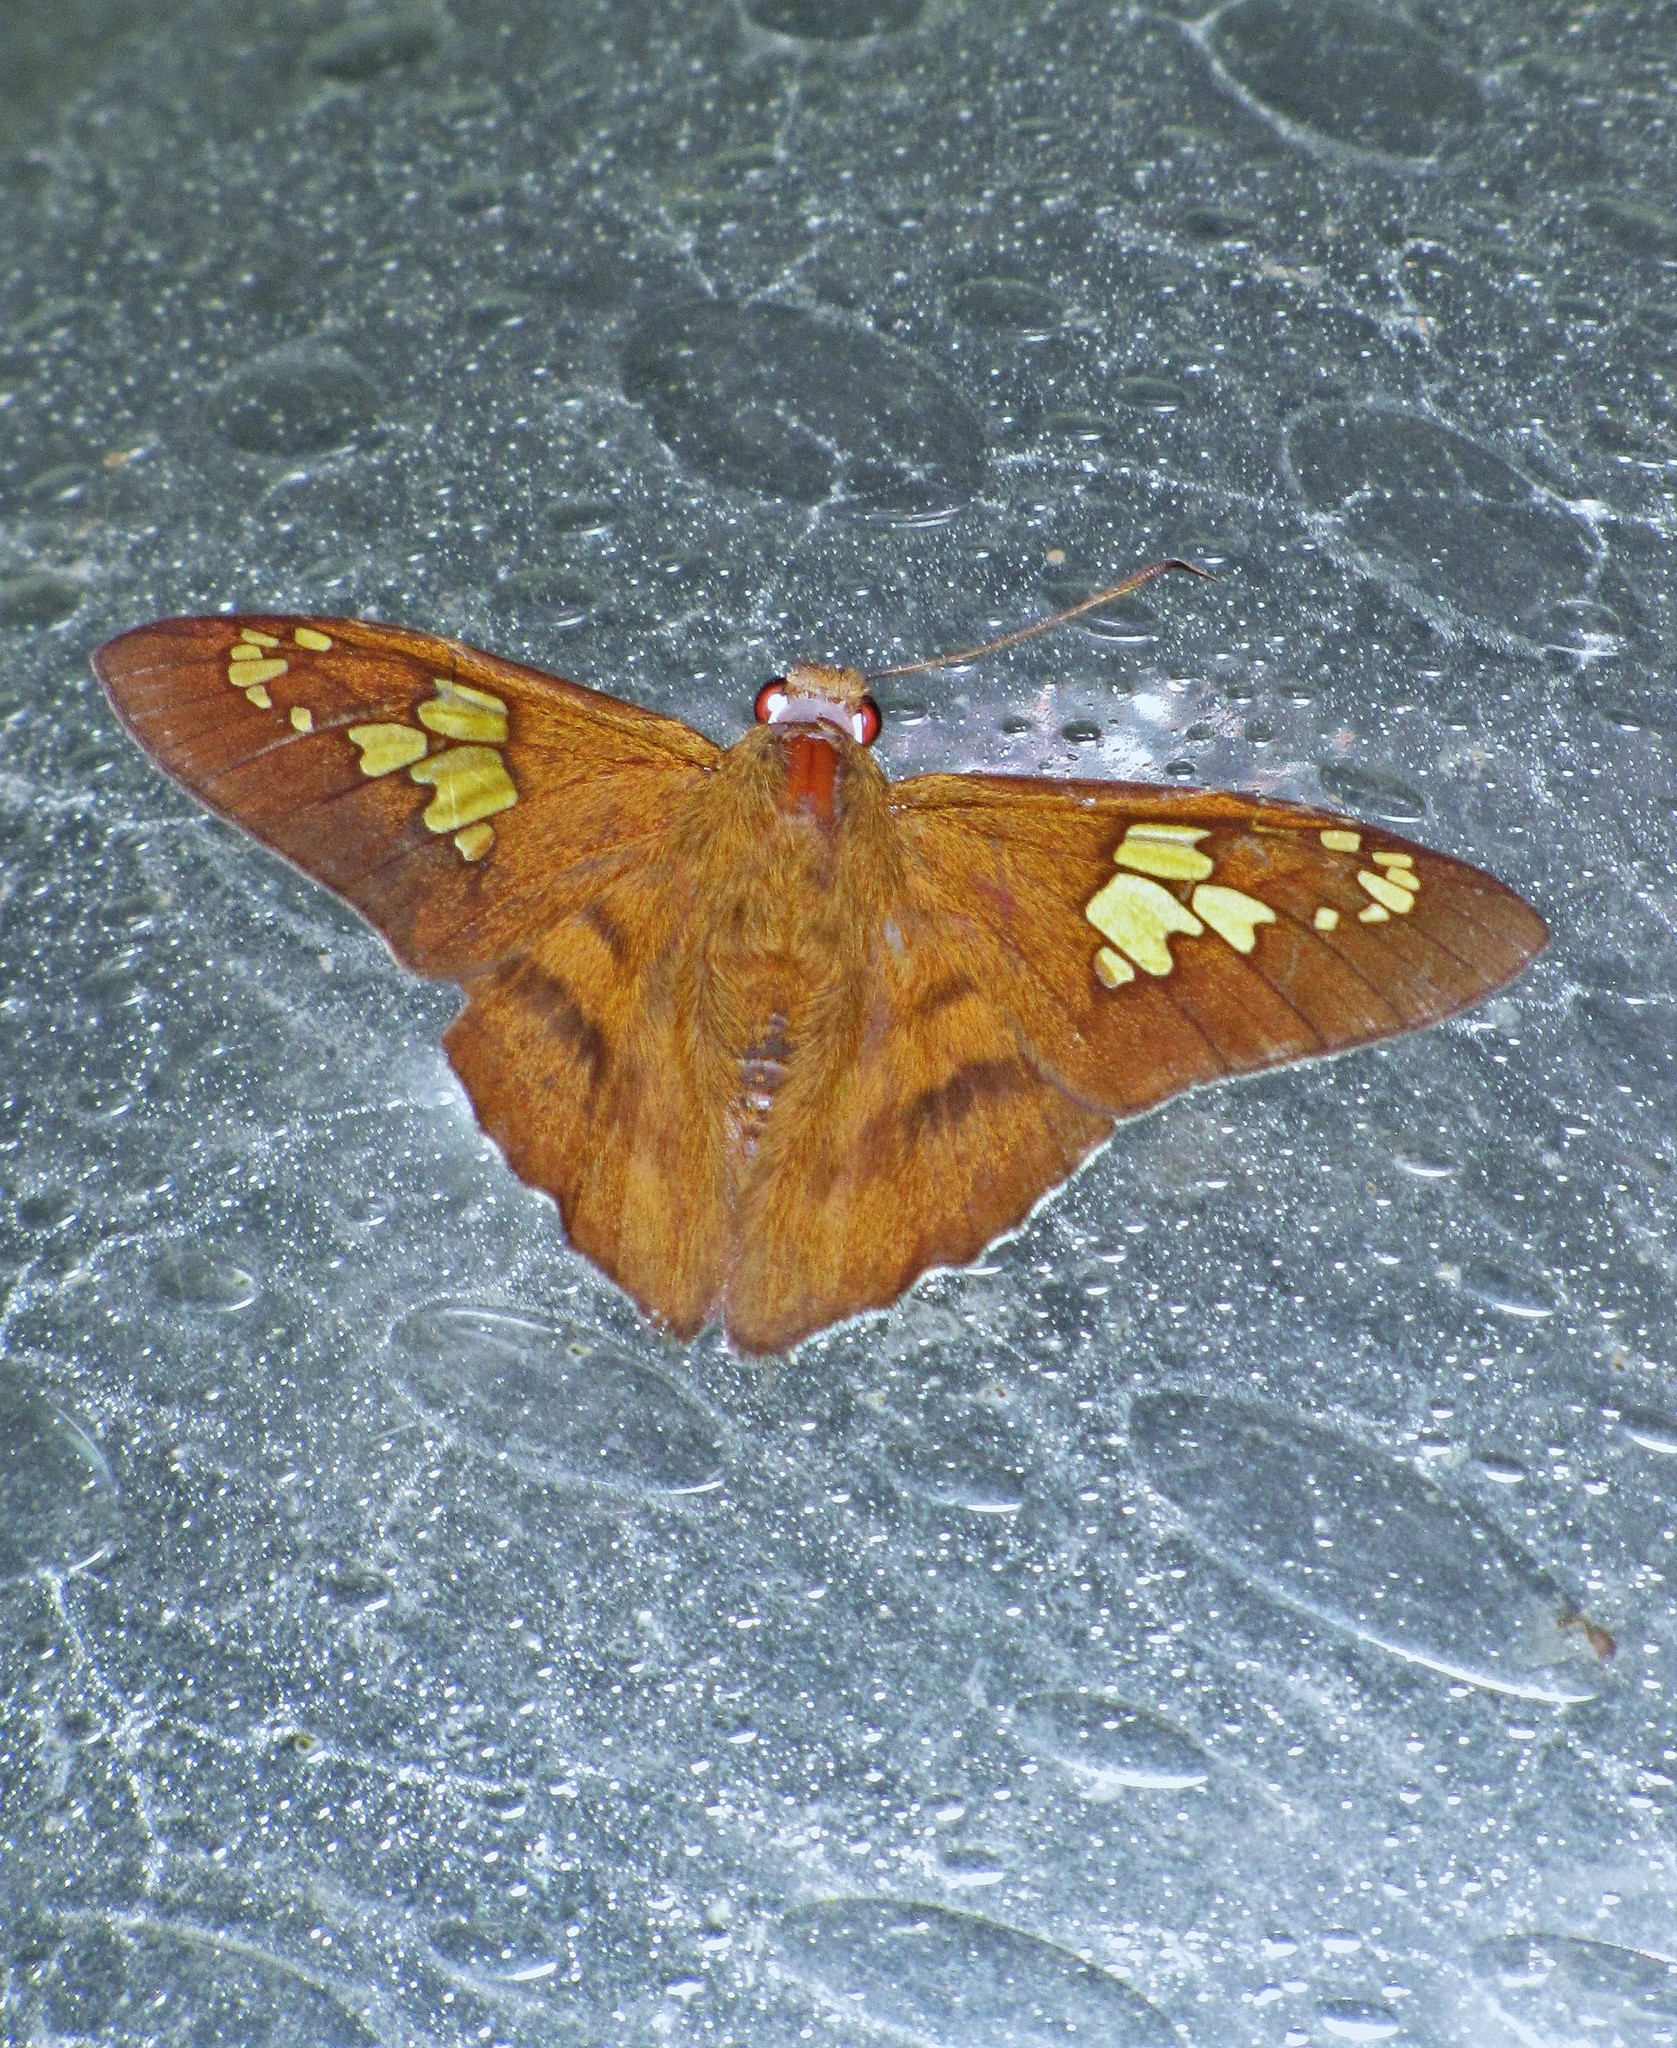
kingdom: Animalia
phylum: Arthropoda
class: Insecta
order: Lepidoptera
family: Hesperiidae
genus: Nascus
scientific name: Nascus phocus
